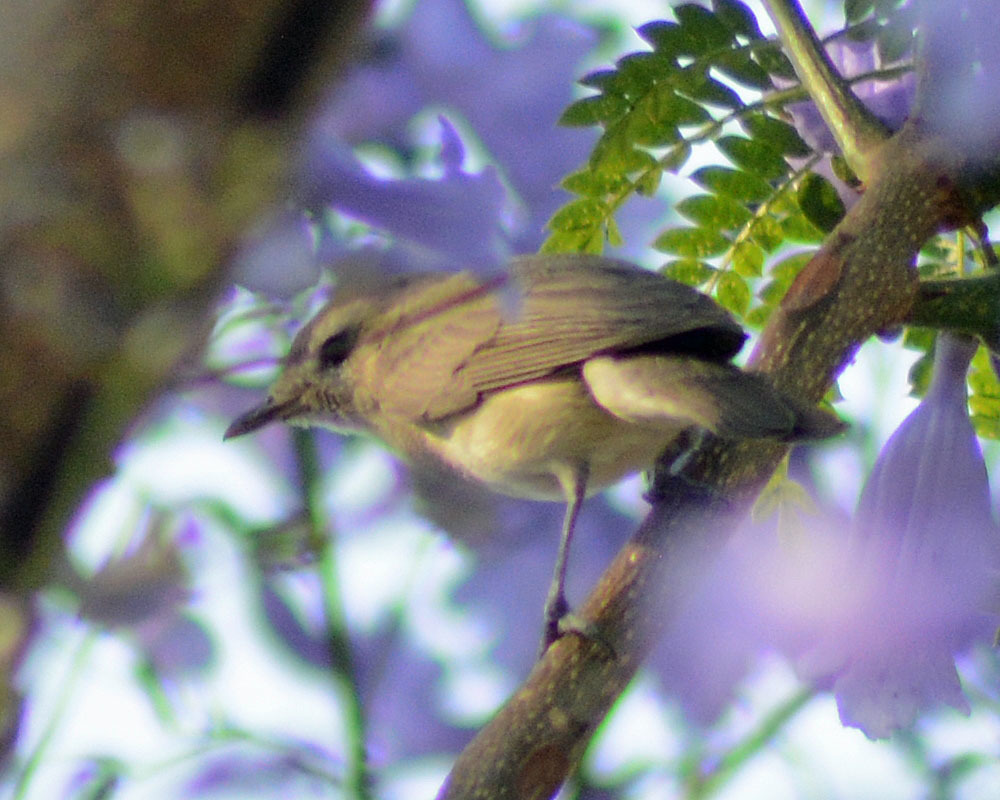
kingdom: Animalia
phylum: Chordata
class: Aves
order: Passeriformes
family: Vireonidae
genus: Vireo
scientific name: Vireo gilvus
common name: Warbling vireo
